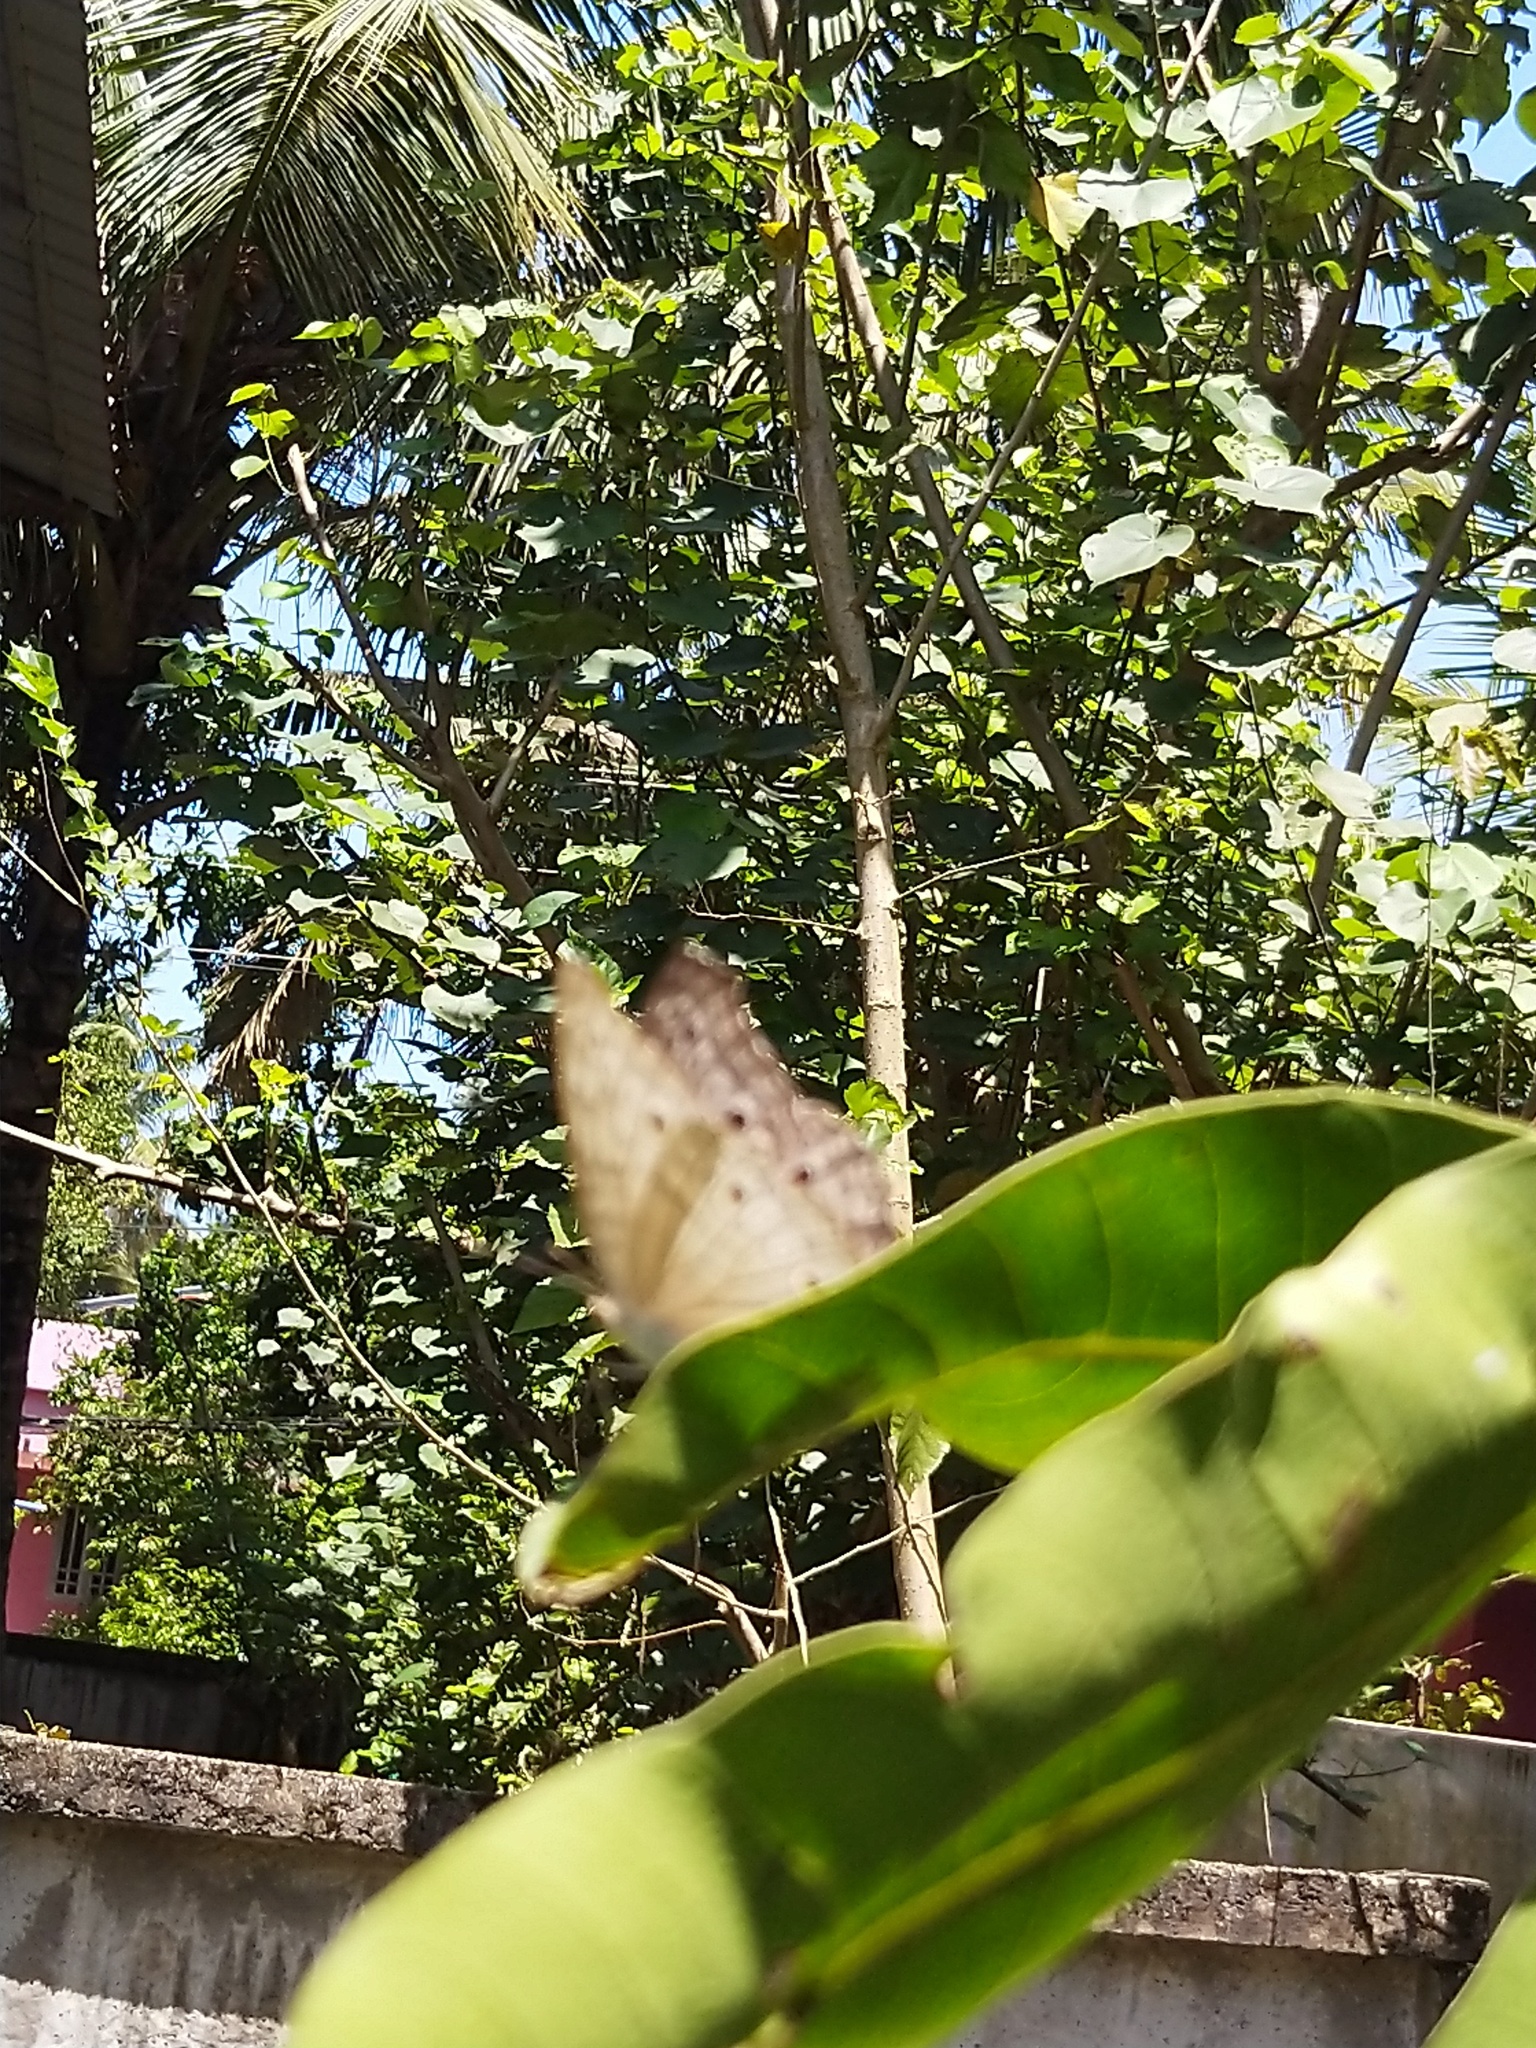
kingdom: Animalia
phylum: Arthropoda
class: Insecta
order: Lepidoptera
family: Nymphalidae
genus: Junonia
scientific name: Junonia atlites
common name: Grey pansy
